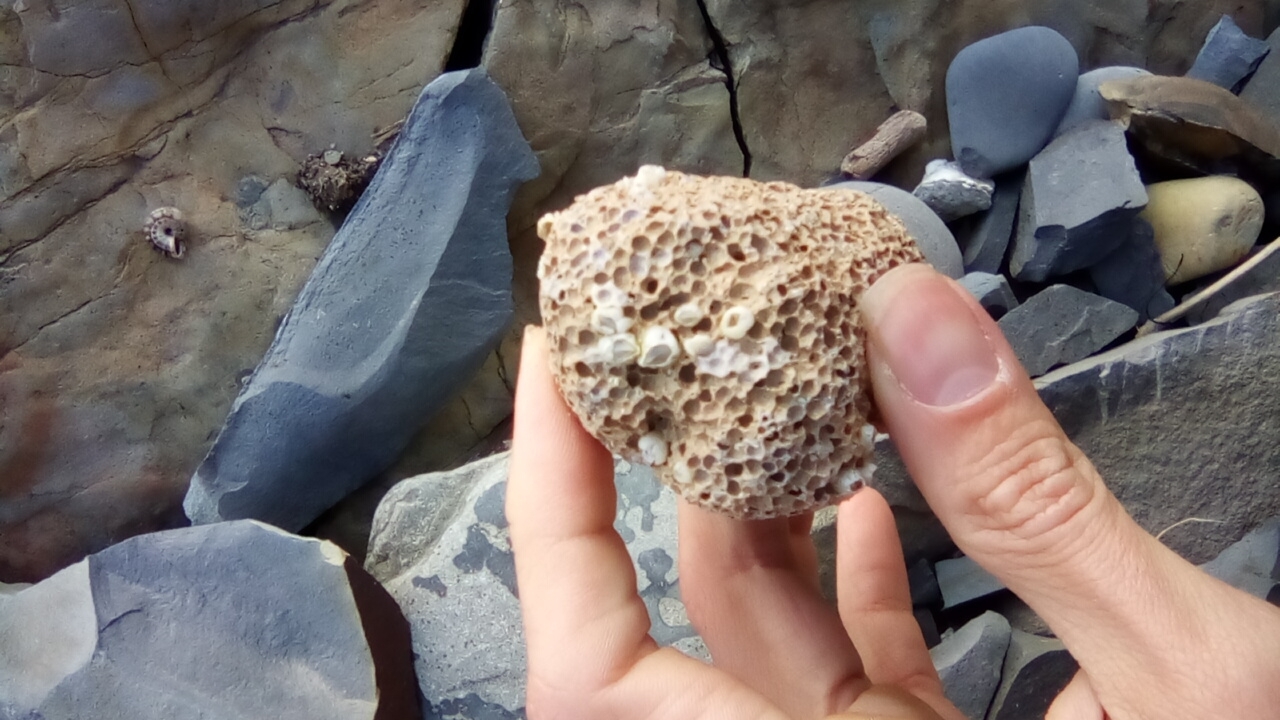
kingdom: Animalia
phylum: Arthropoda
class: Maxillopoda
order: Sessilia
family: Balanidae
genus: Amphibalanus
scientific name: Amphibalanus improvisus
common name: Bay barnacle
